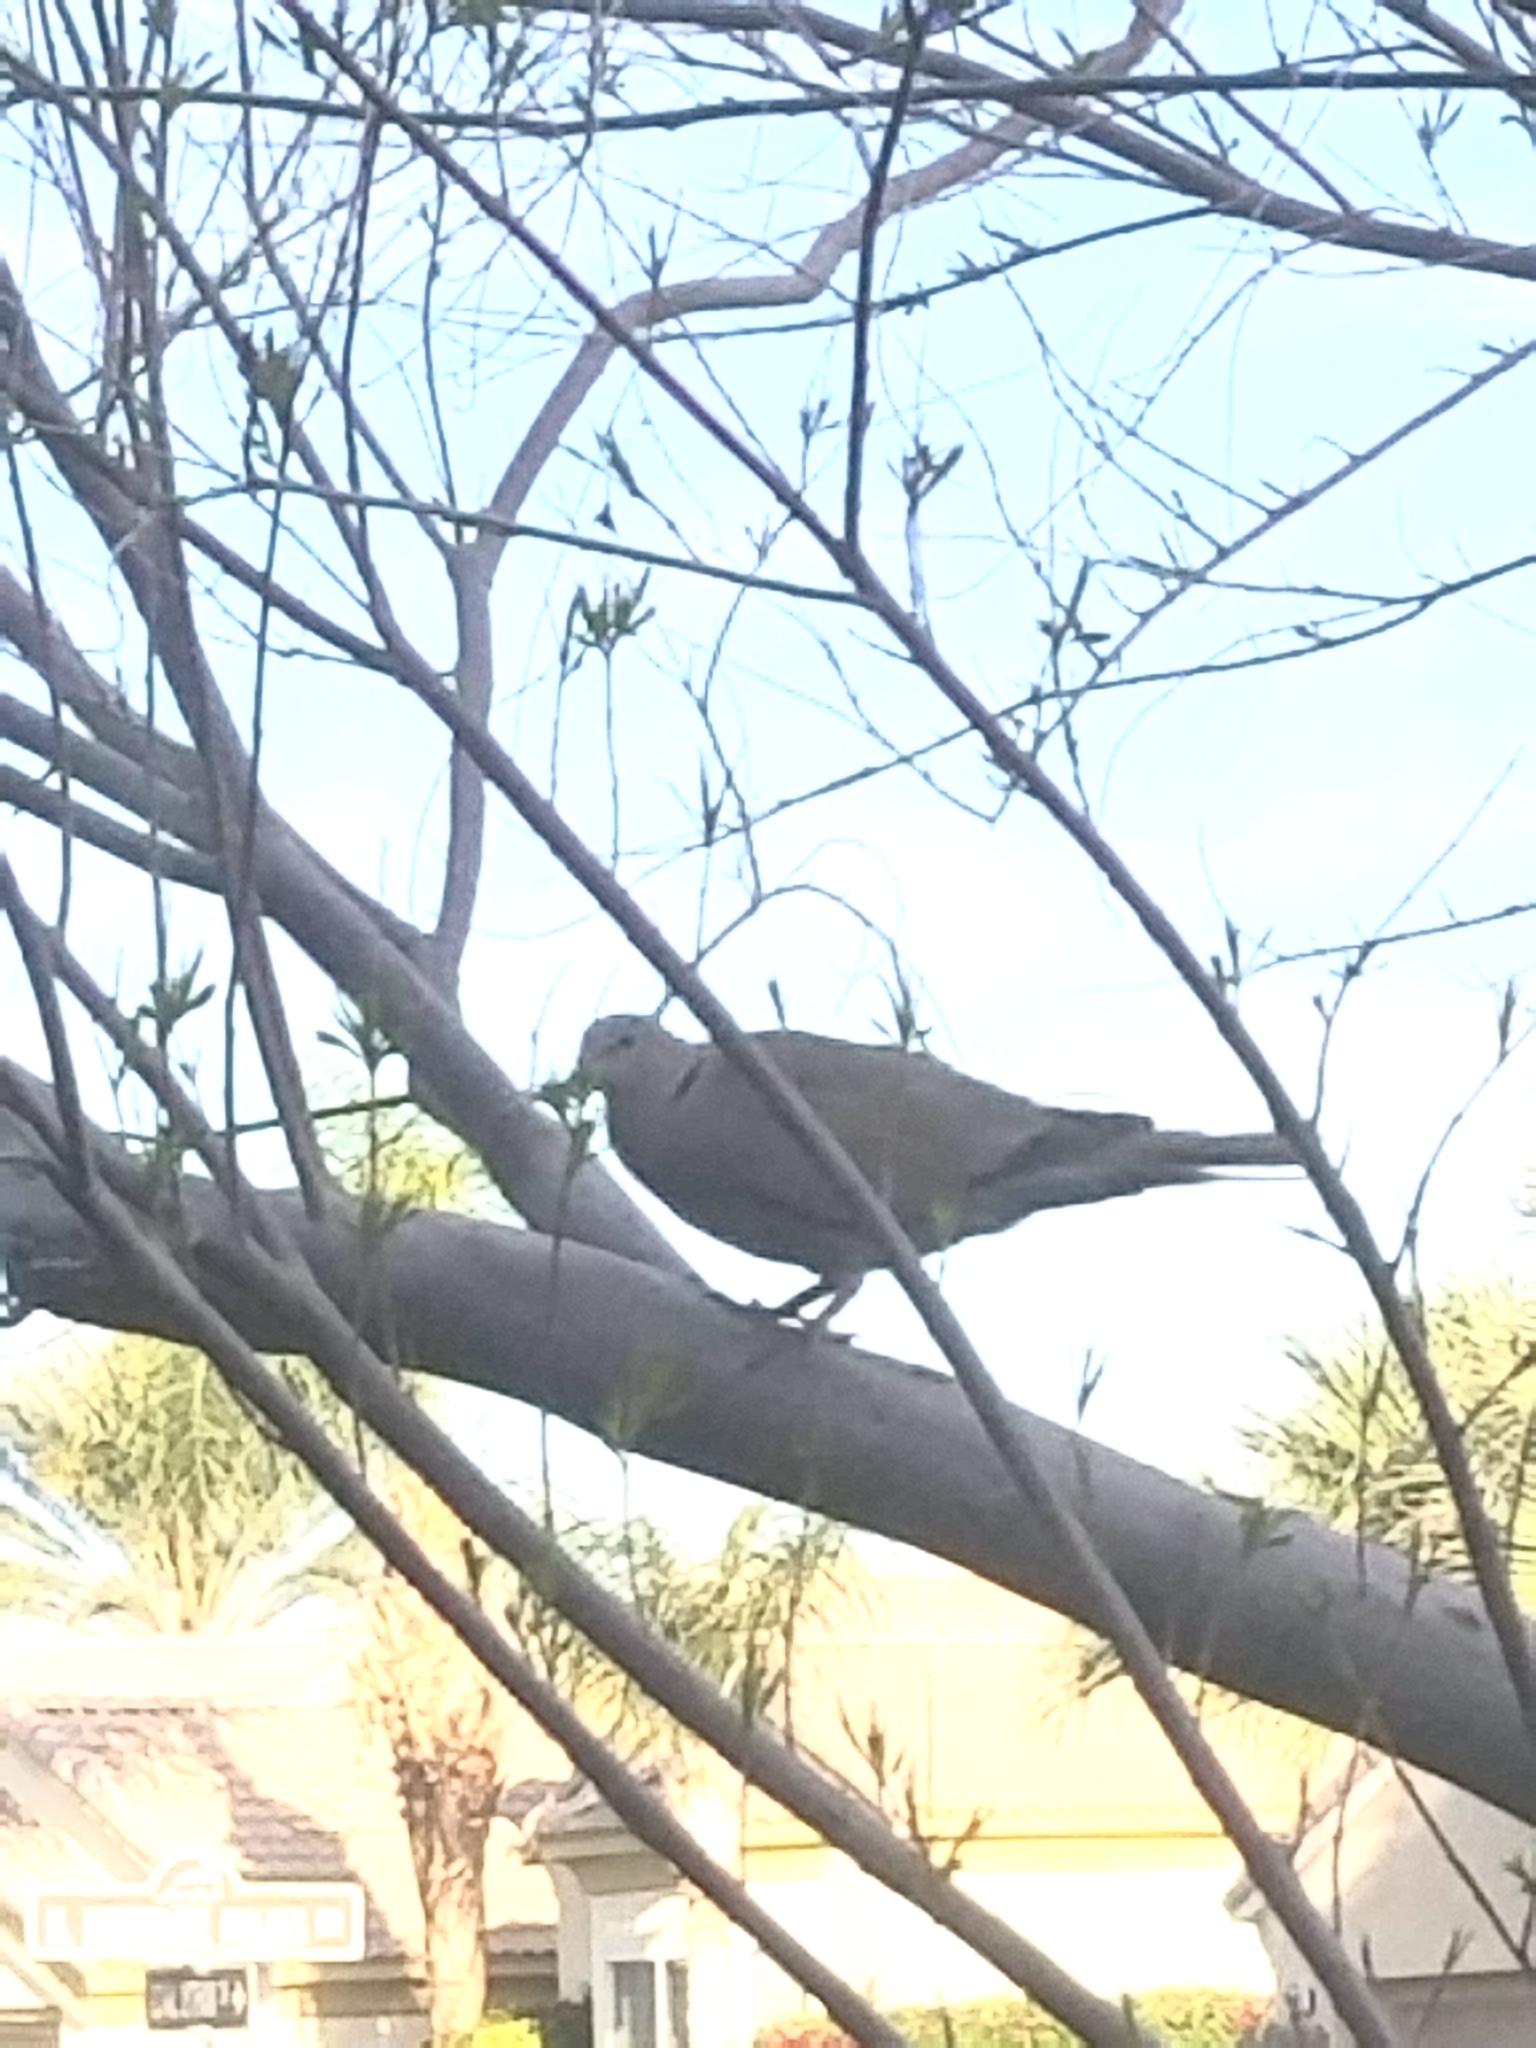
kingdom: Animalia
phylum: Chordata
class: Aves
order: Columbiformes
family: Columbidae
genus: Streptopelia
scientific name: Streptopelia decaocto
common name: Eurasian collared dove
